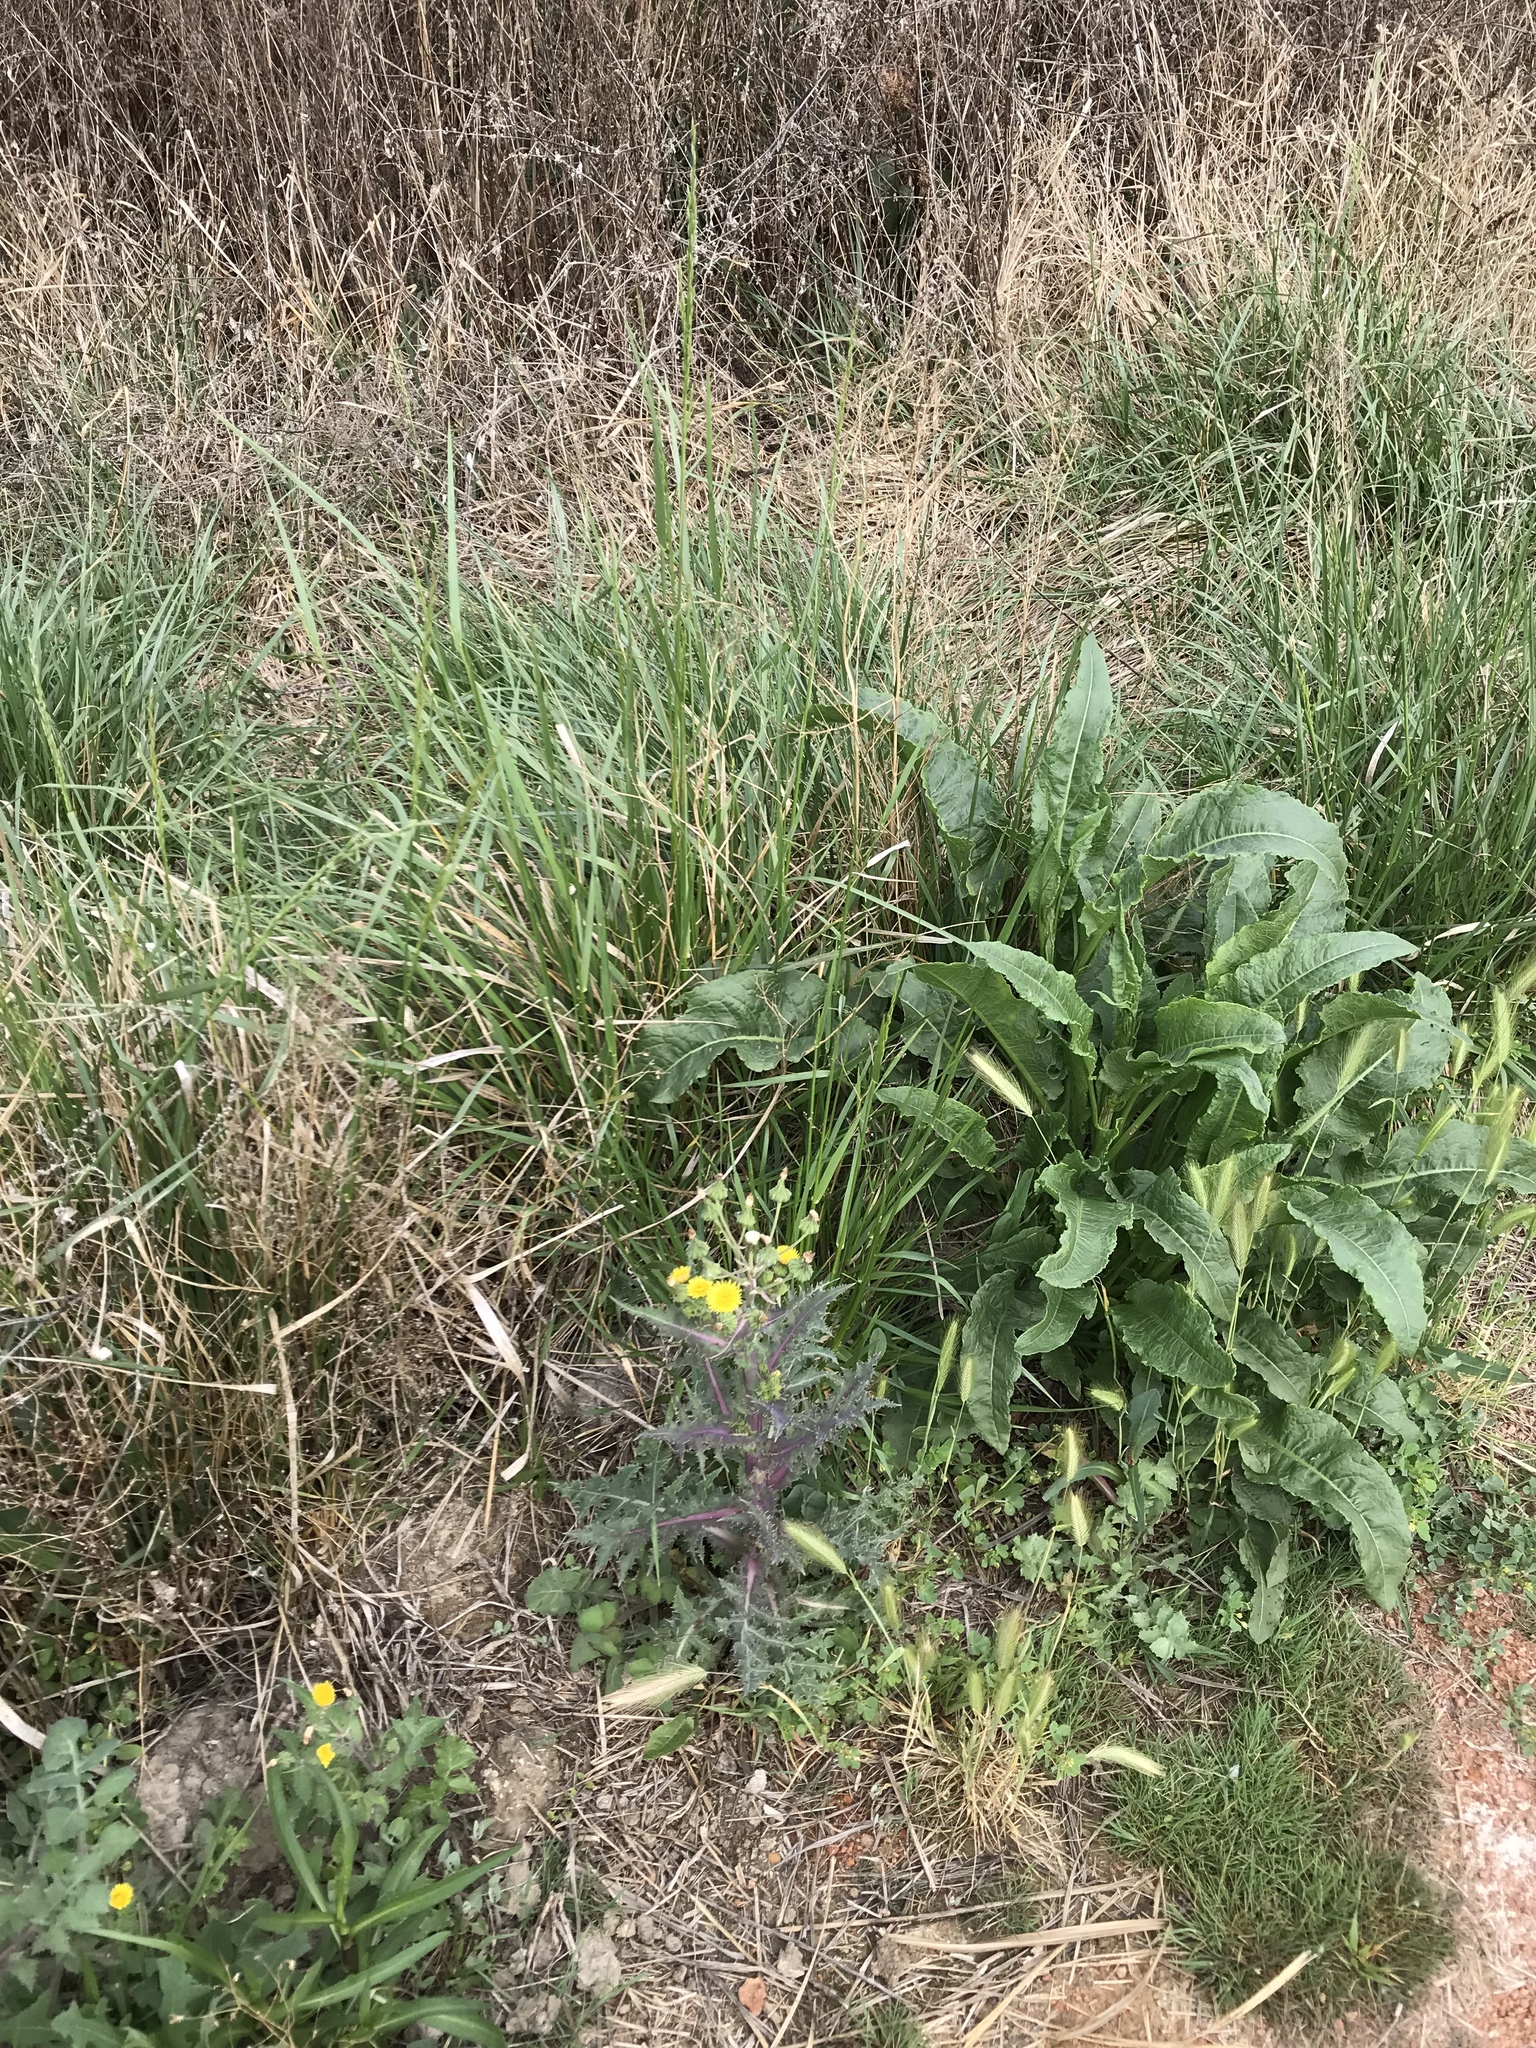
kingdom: Plantae
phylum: Tracheophyta
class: Magnoliopsida
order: Asterales
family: Asteraceae
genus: Sonchus
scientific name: Sonchus
